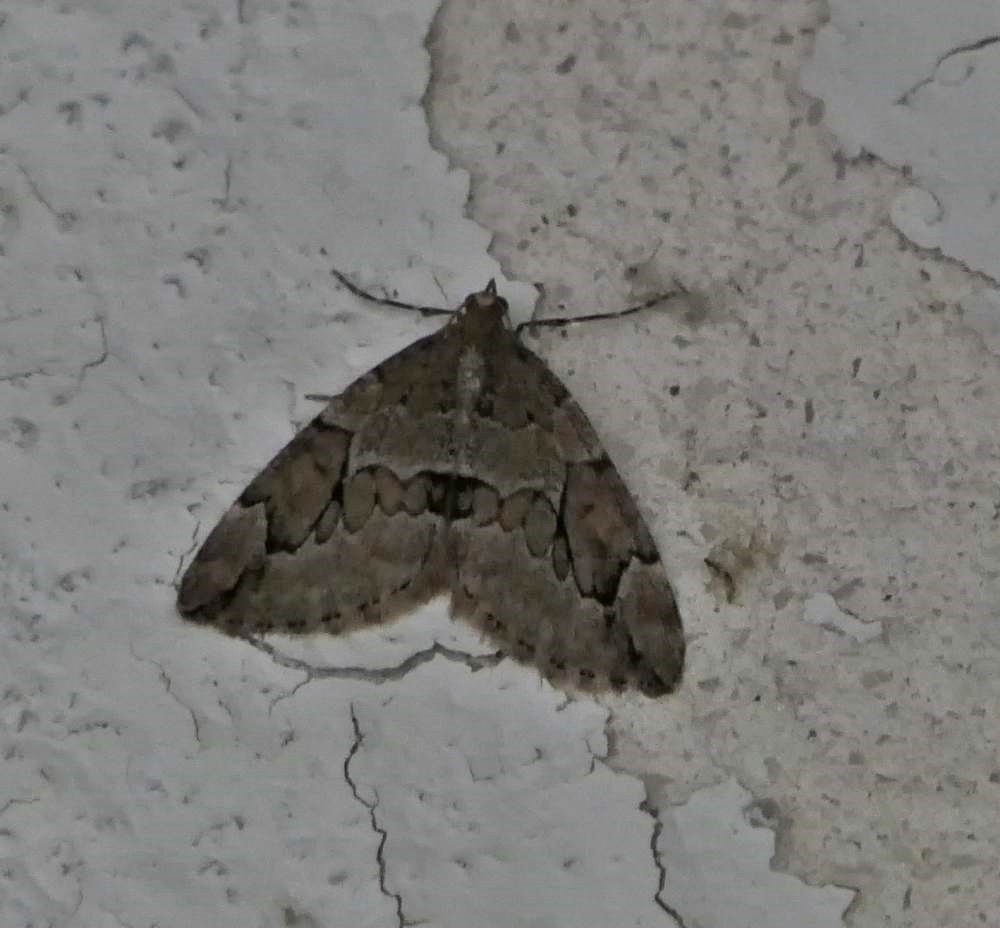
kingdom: Animalia
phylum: Arthropoda
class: Insecta
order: Lepidoptera
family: Geometridae
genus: Thera
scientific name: Thera juniperata
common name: Juniper carpet
